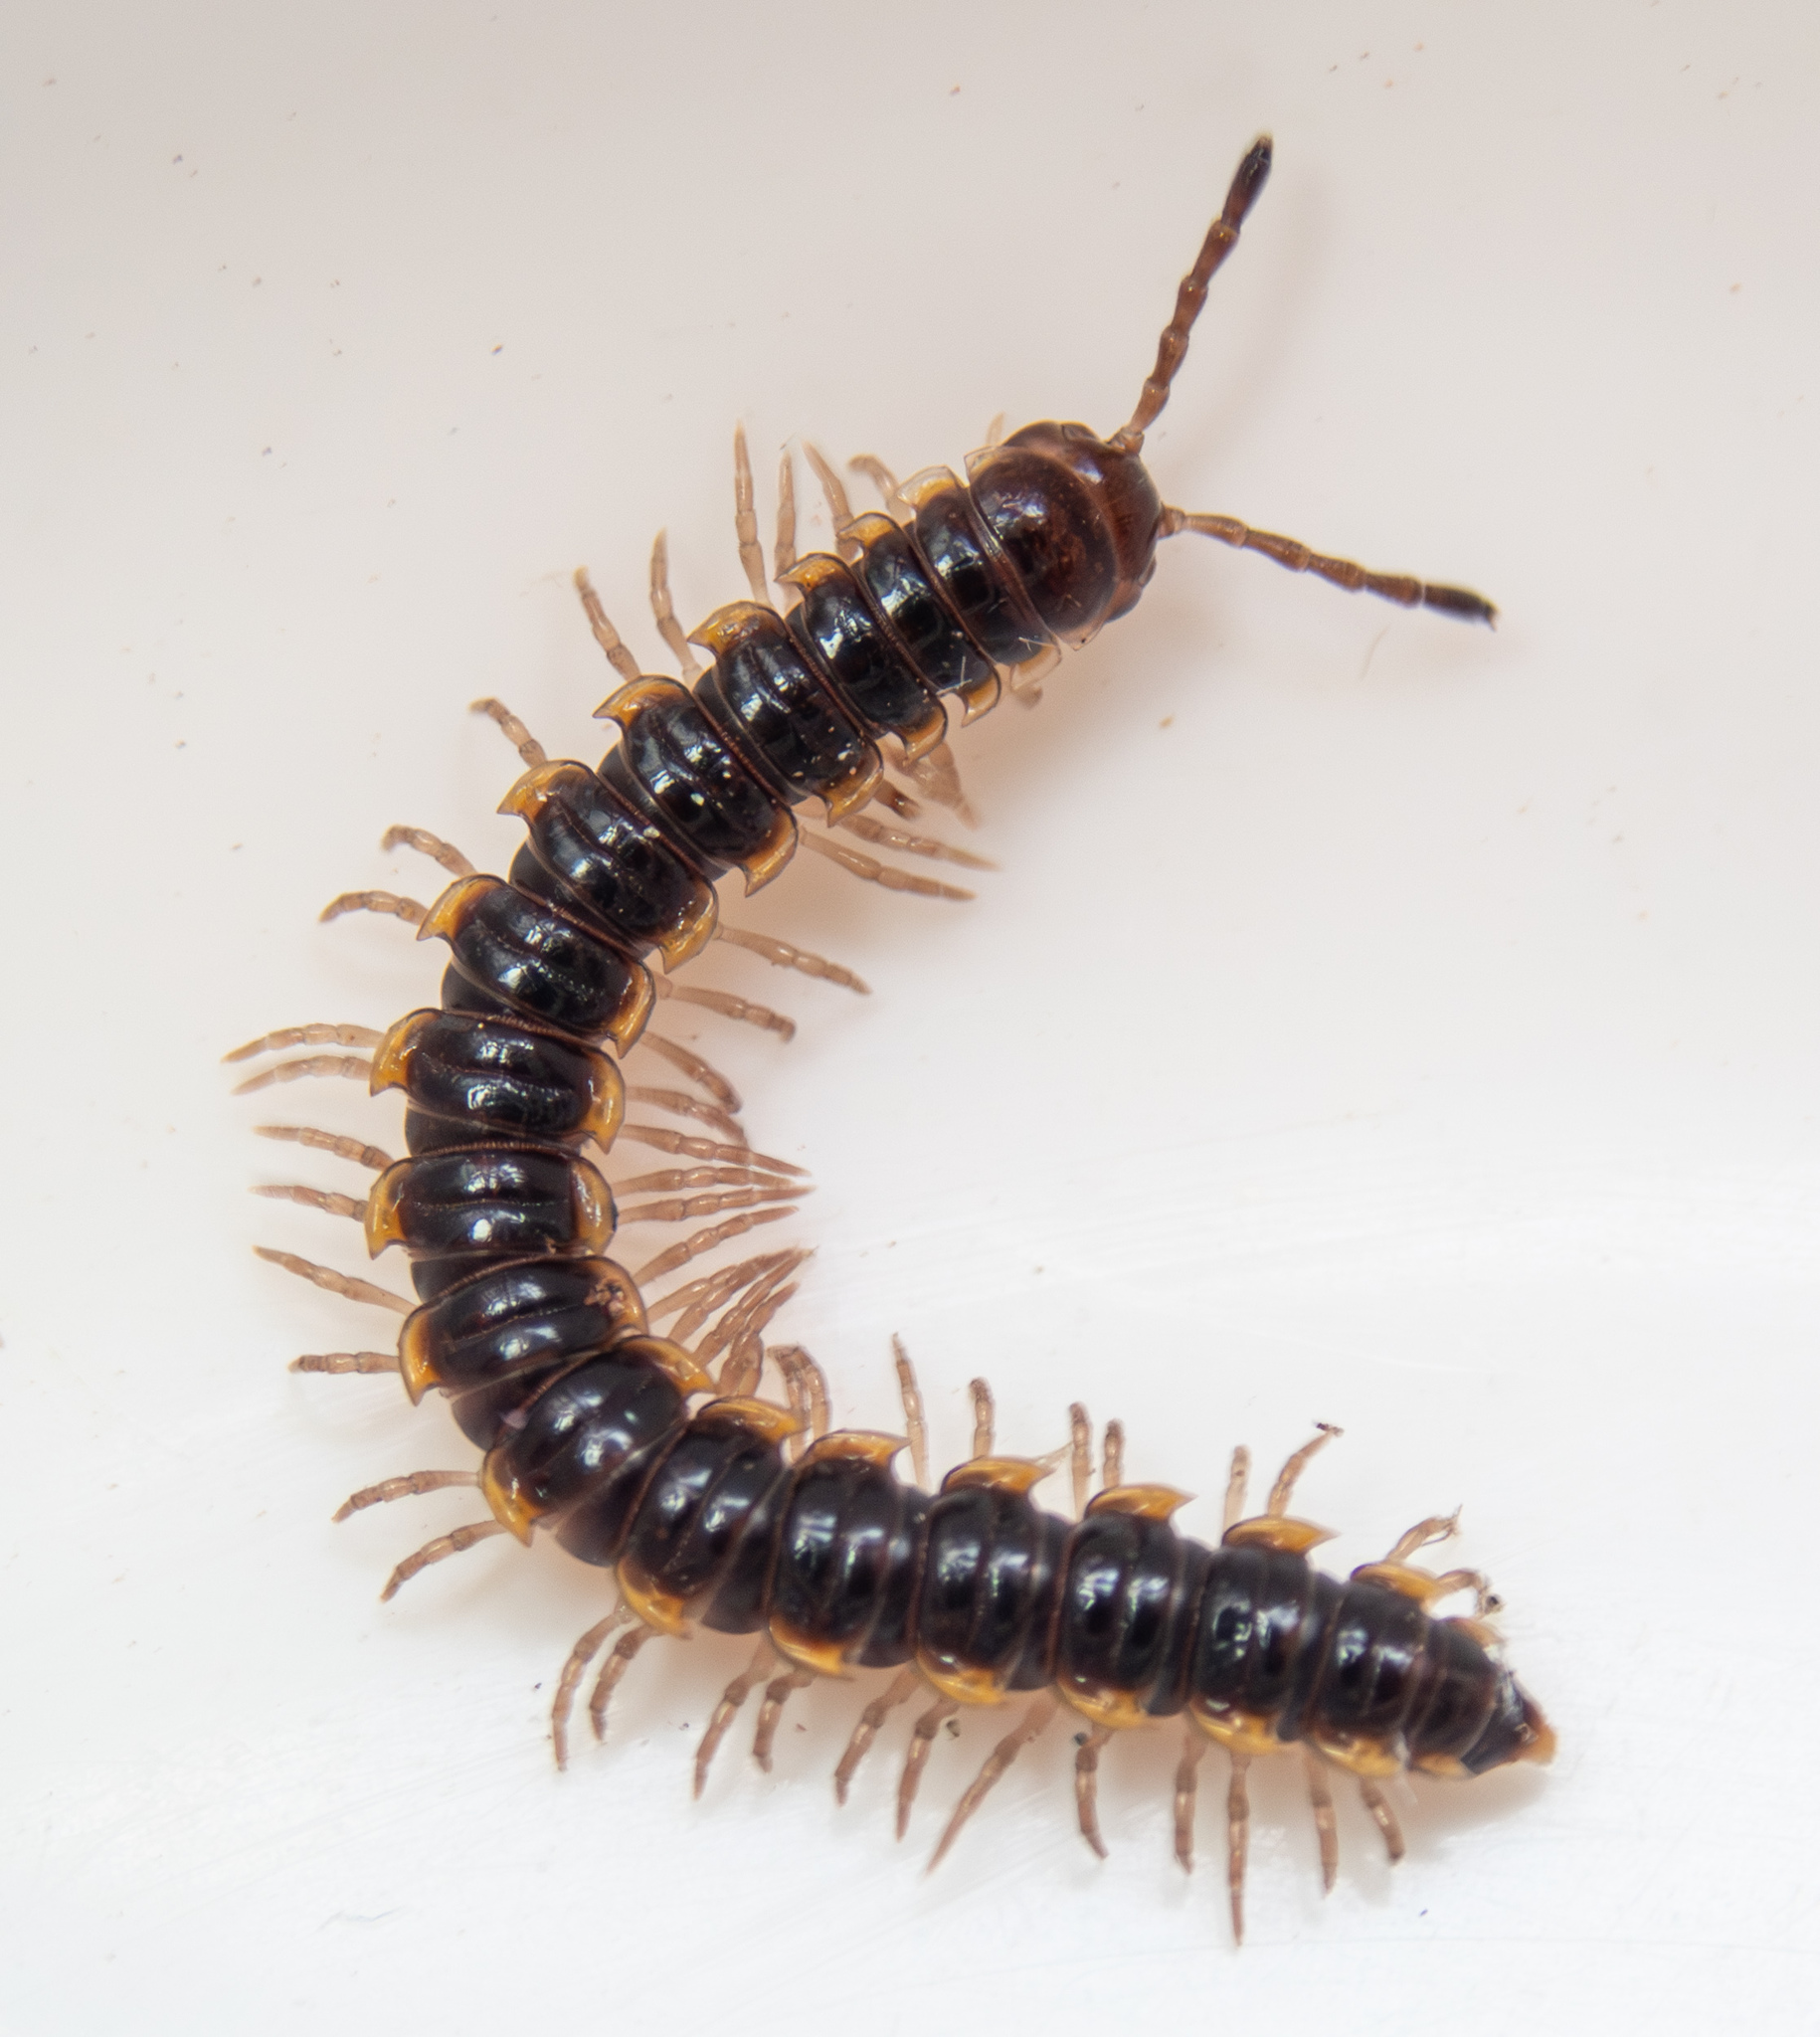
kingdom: Animalia
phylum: Arthropoda
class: Diplopoda
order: Polydesmida
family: Paradoxosomatidae
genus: Orthomorpha
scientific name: Orthomorpha coarctata
